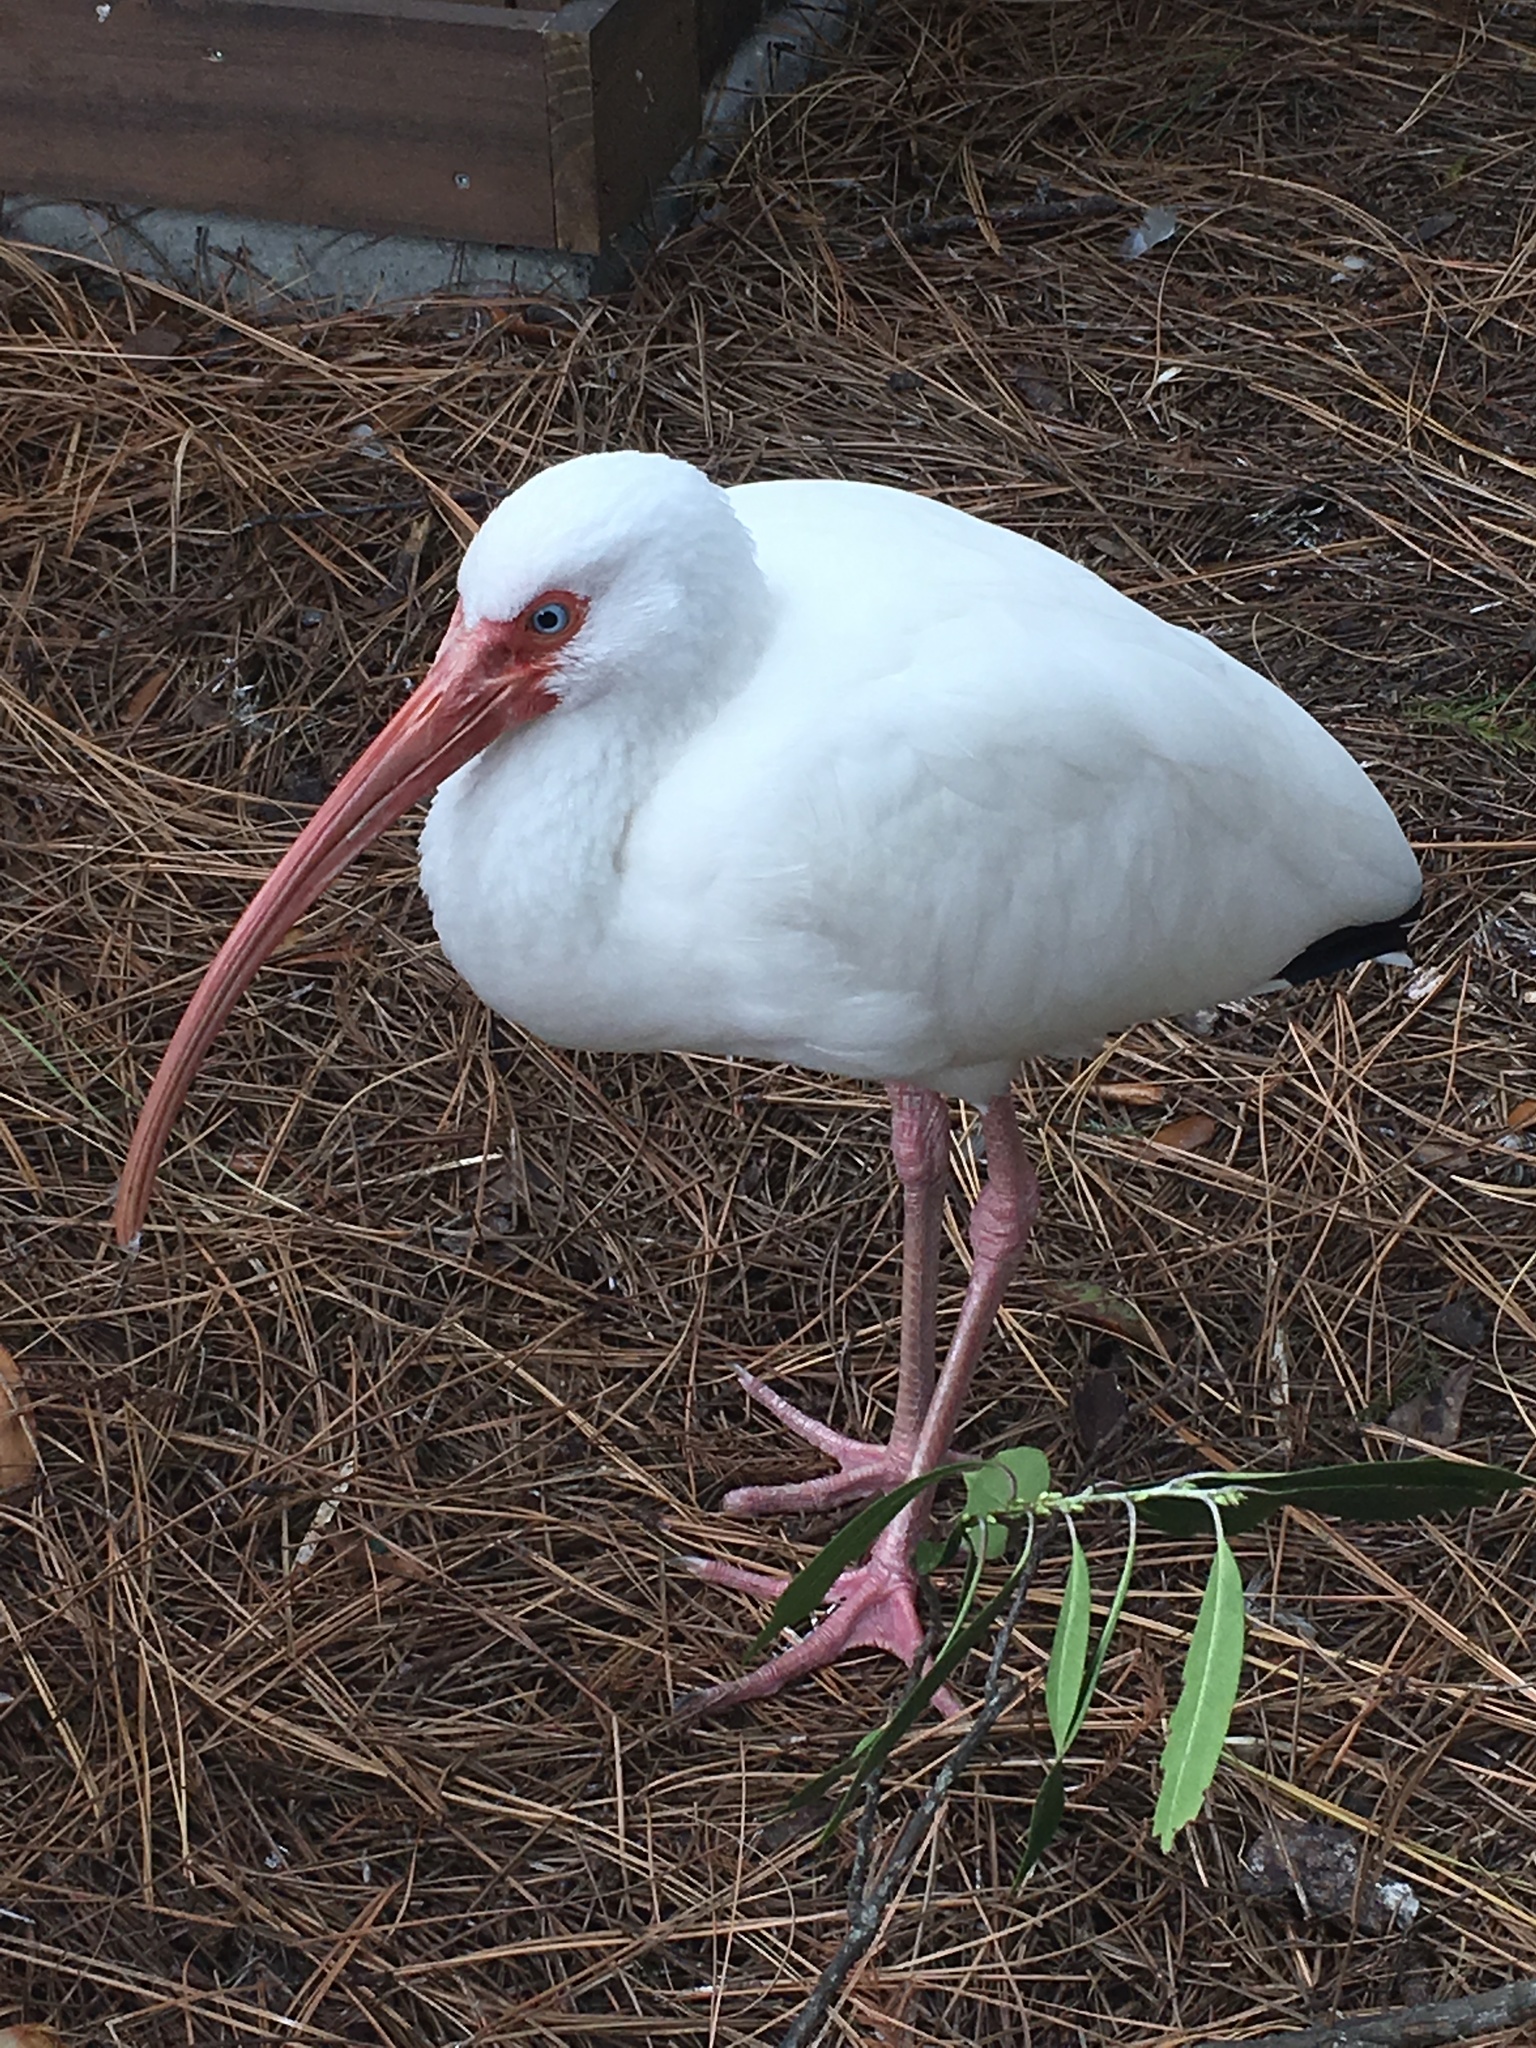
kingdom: Animalia
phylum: Chordata
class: Aves
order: Pelecaniformes
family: Threskiornithidae
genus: Eudocimus
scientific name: Eudocimus albus
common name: White ibis
